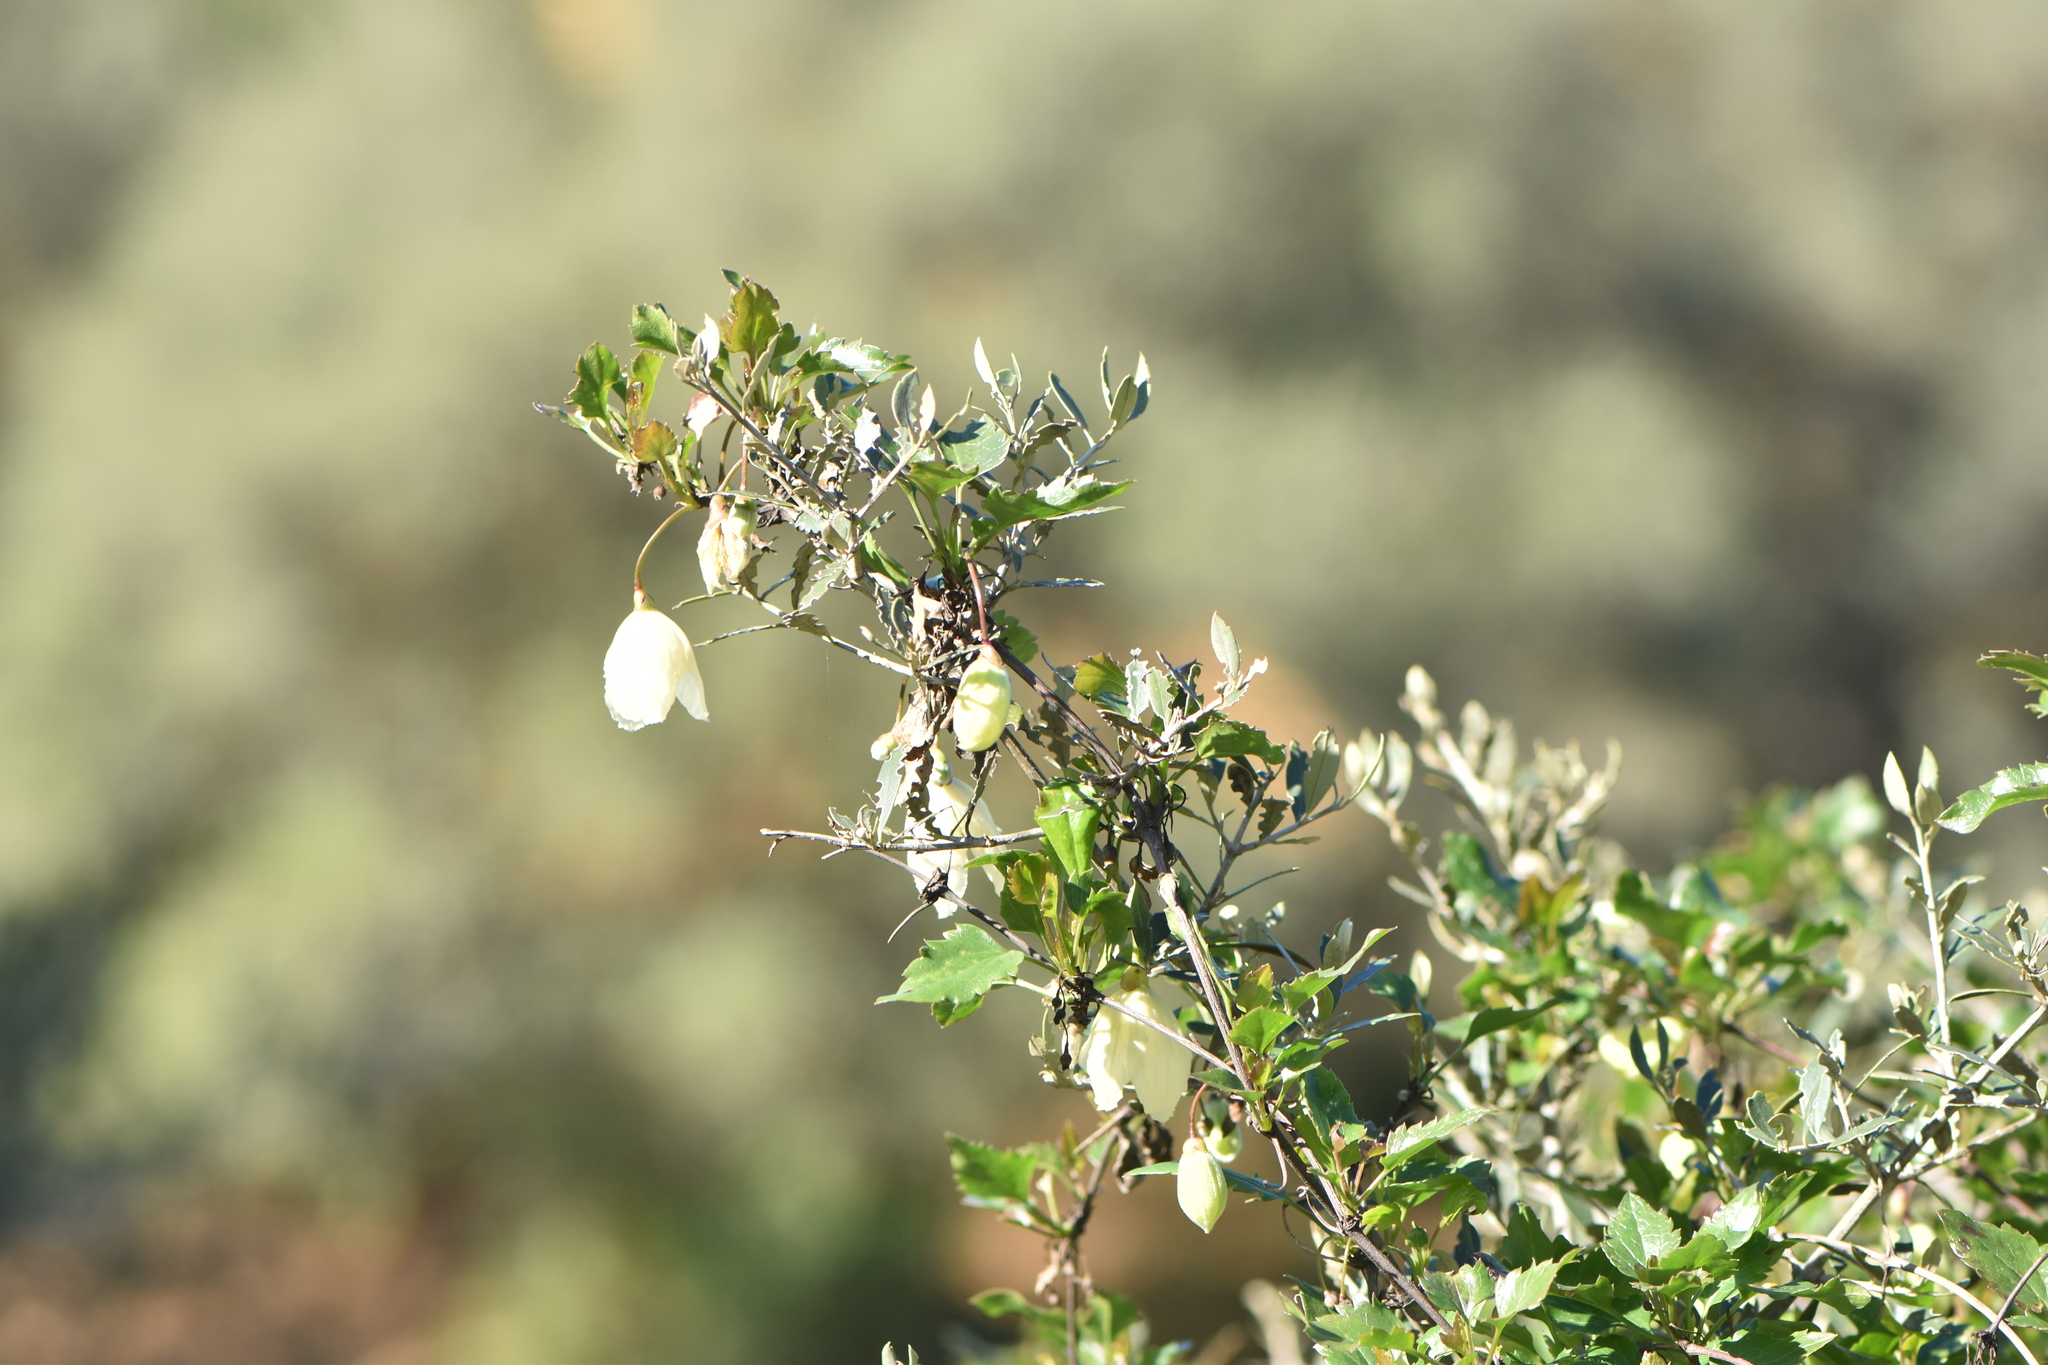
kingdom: Plantae
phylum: Tracheophyta
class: Magnoliopsida
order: Ranunculales
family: Ranunculaceae
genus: Clematis
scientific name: Clematis cirrhosa
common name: Early virgin's-bower
